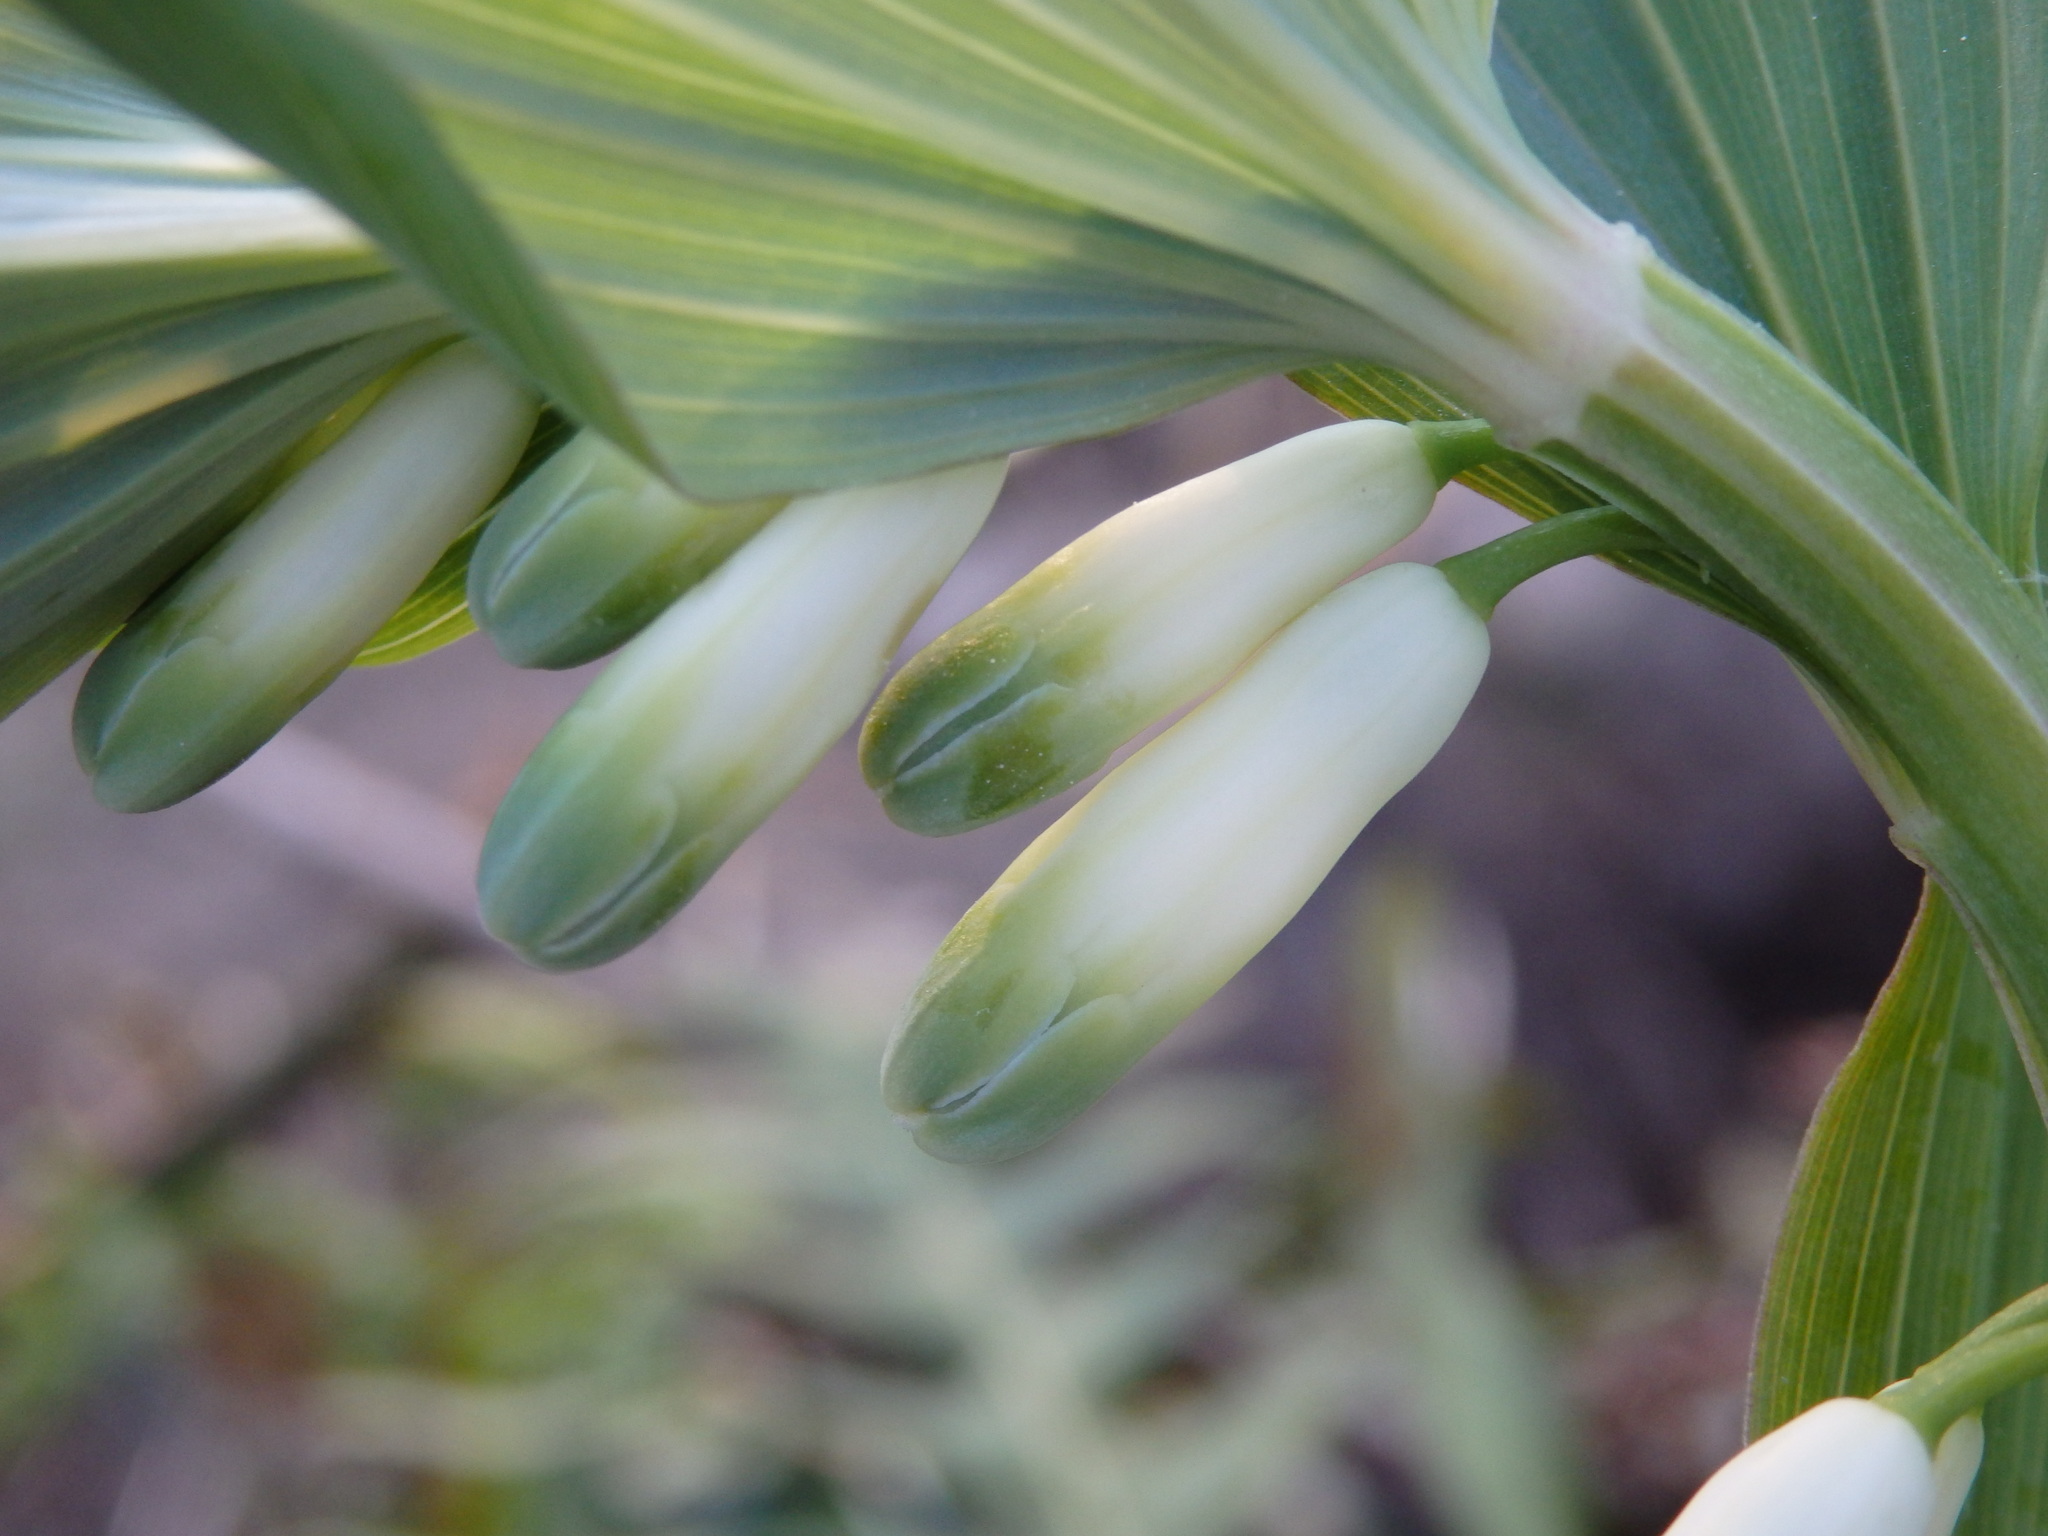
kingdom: Plantae
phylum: Tracheophyta
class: Liliopsida
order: Asparagales
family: Asparagaceae
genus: Polygonatum
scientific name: Polygonatum odoratum
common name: Angular solomon's-seal
